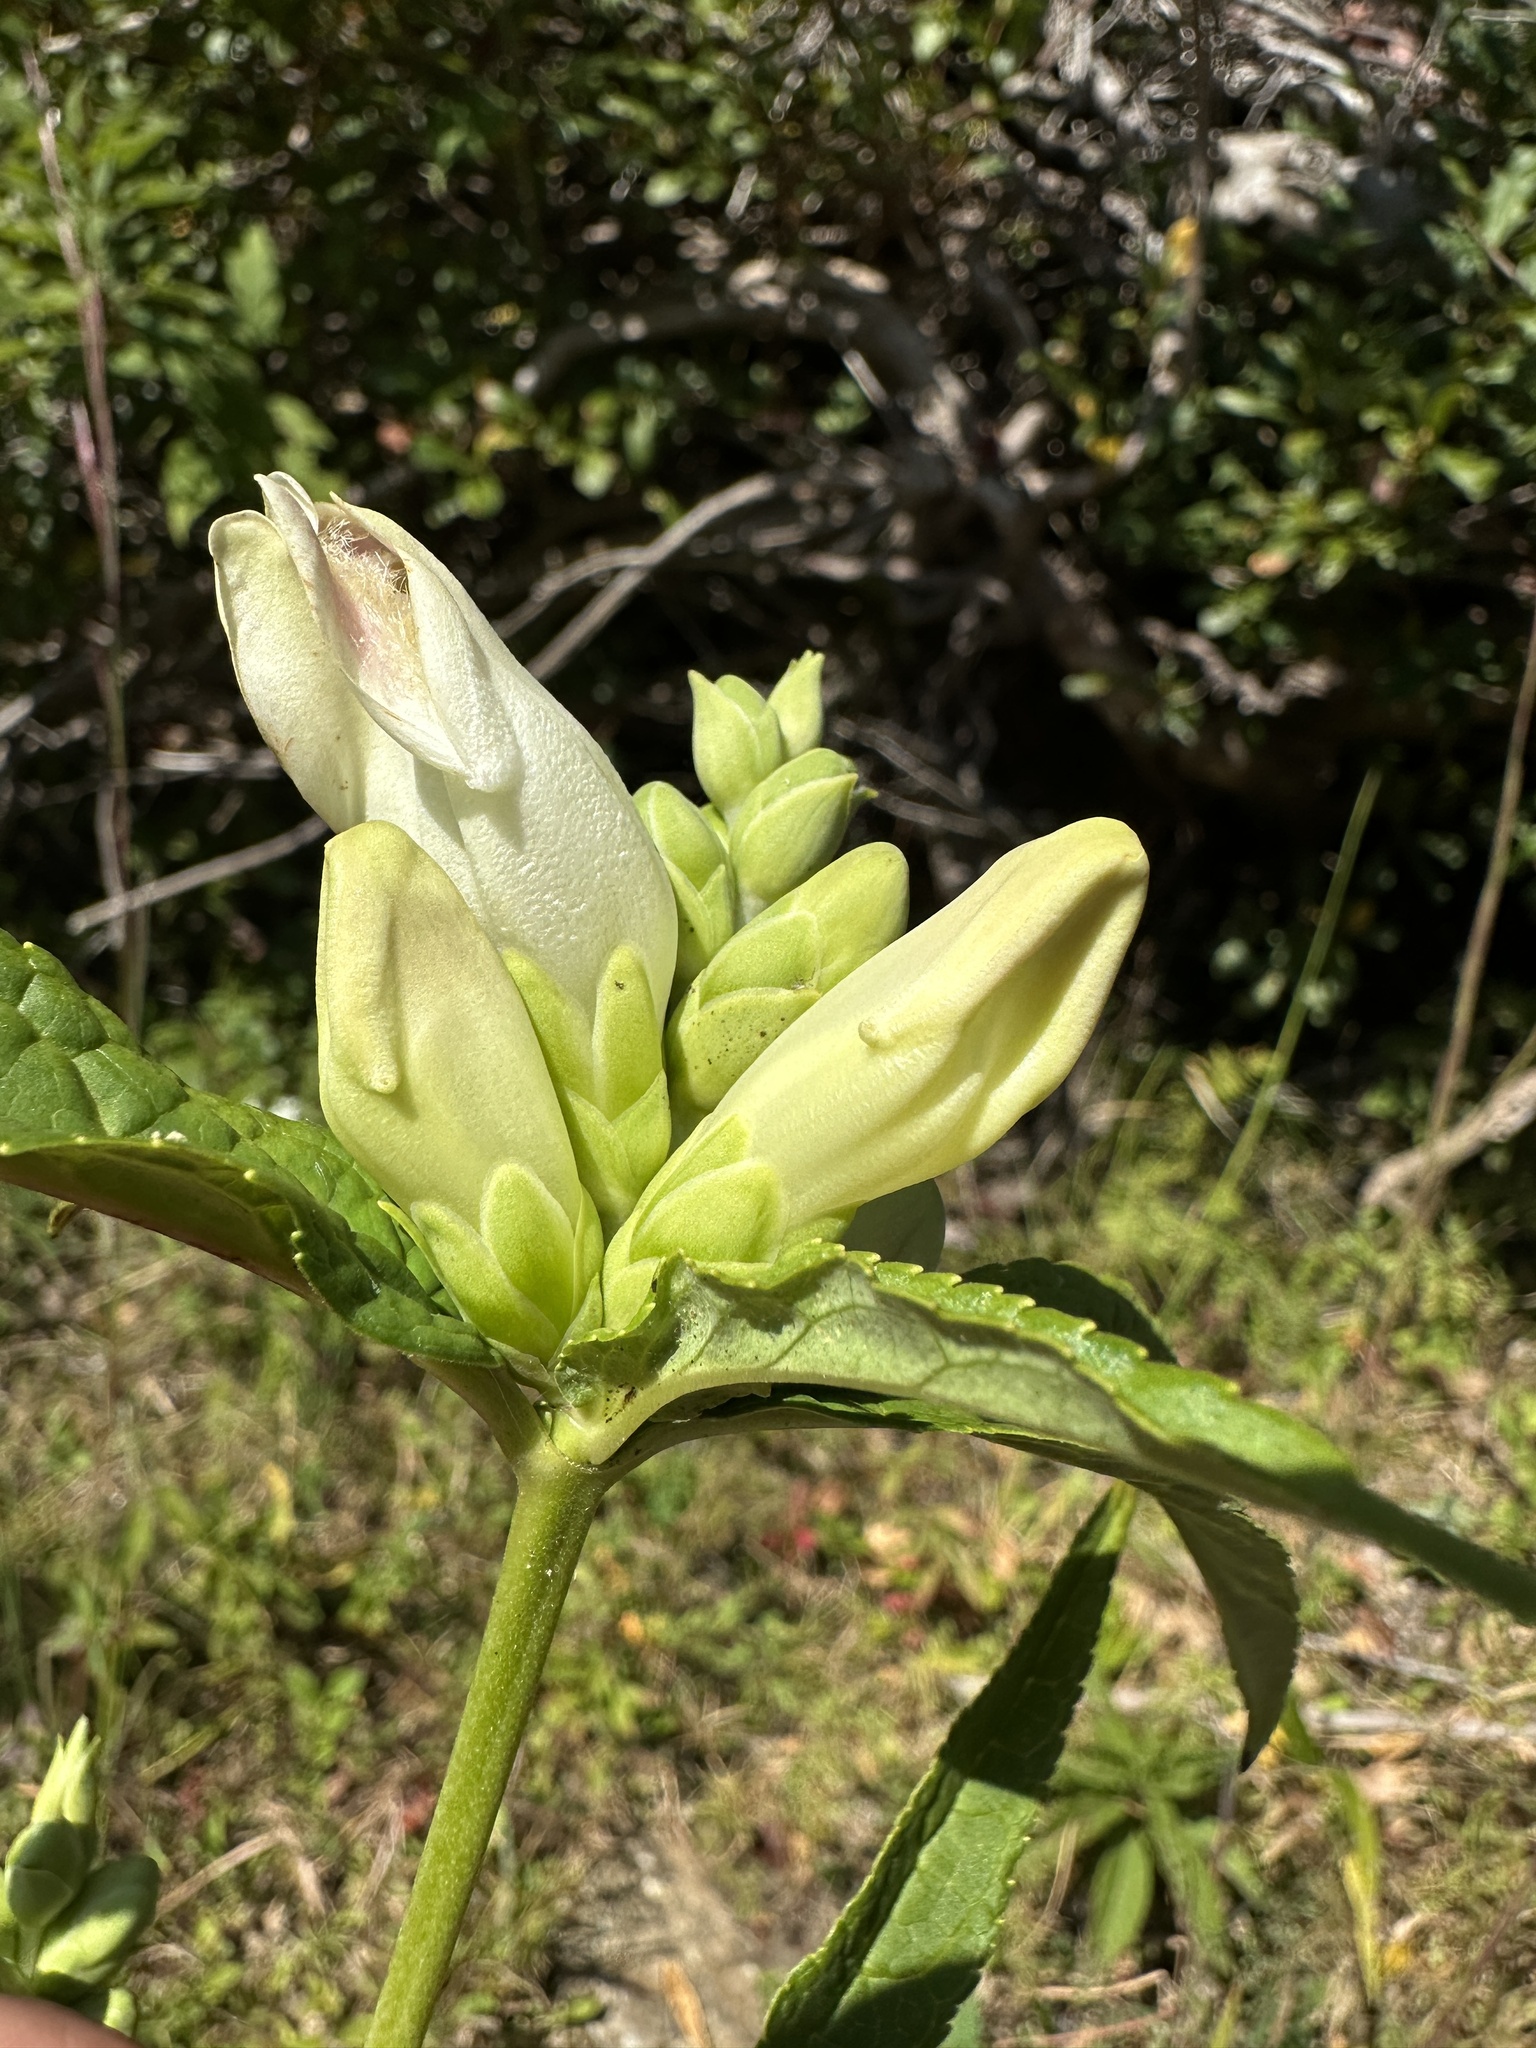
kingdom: Plantae
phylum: Tracheophyta
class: Magnoliopsida
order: Lamiales
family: Plantaginaceae
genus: Chelone
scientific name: Chelone glabra
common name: Snakehead
